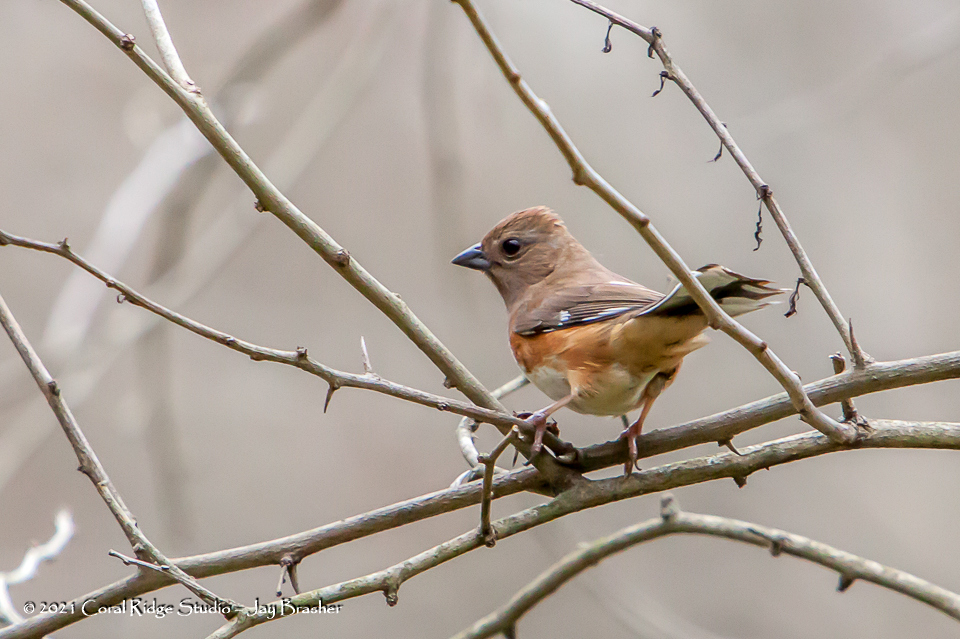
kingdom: Animalia
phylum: Chordata
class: Aves
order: Passeriformes
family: Passerellidae
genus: Pipilo
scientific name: Pipilo erythrophthalmus
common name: Eastern towhee
